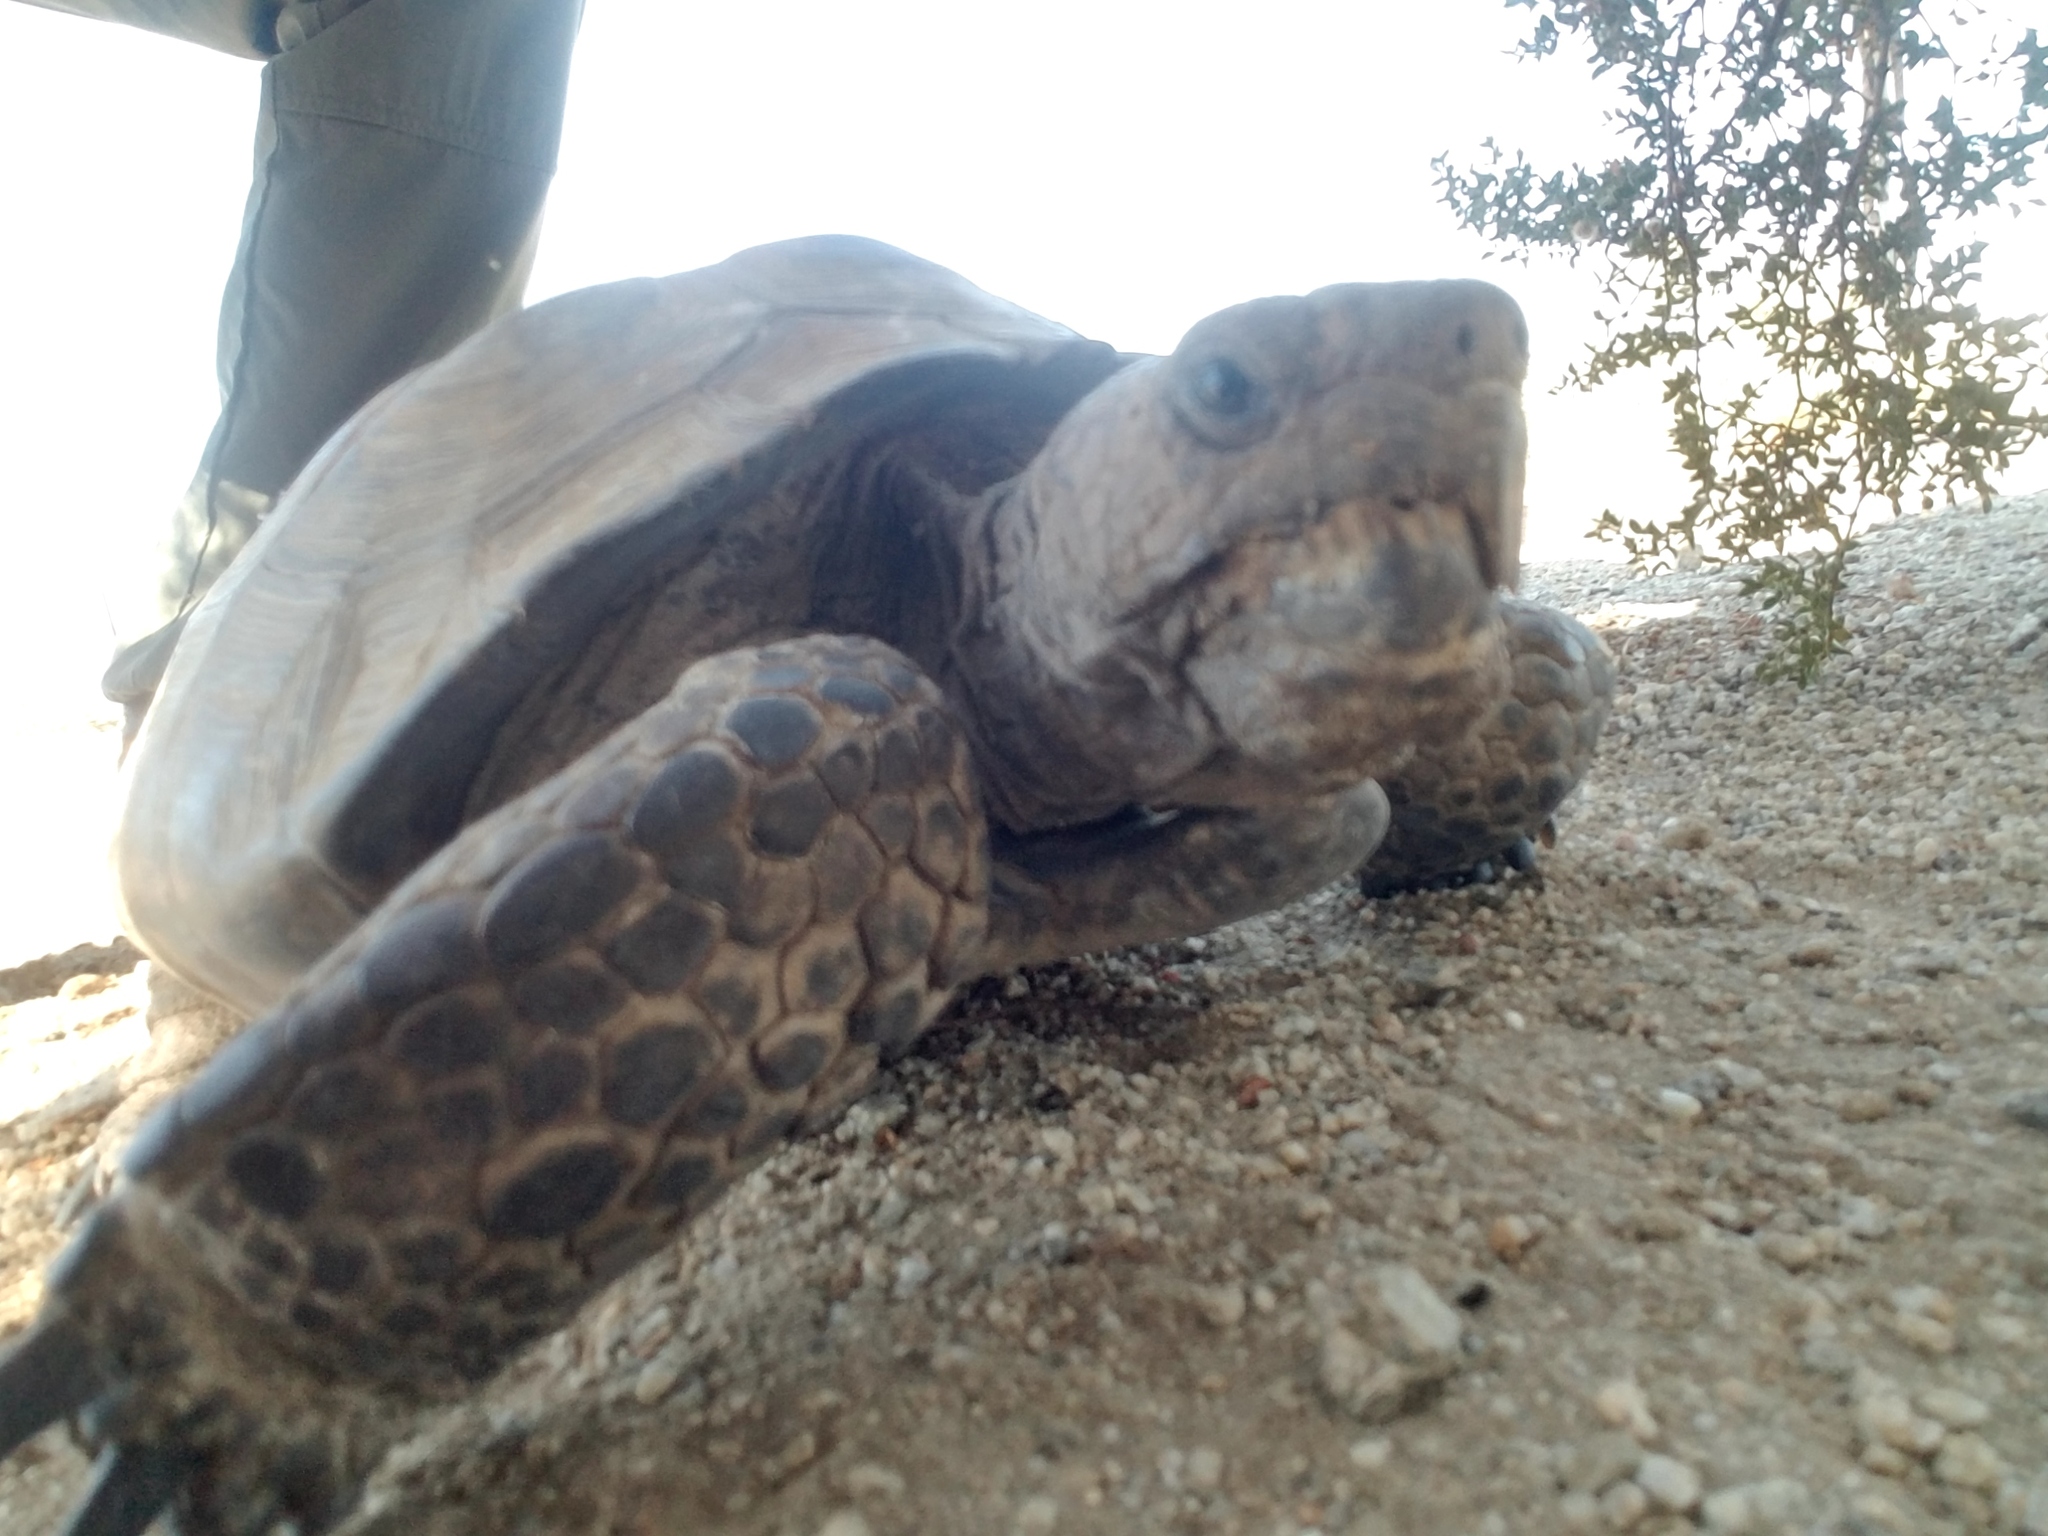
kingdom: Animalia
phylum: Chordata
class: Testudines
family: Testudinidae
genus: Gopherus
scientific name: Gopherus agassizii
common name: Mojave desert tortoise
